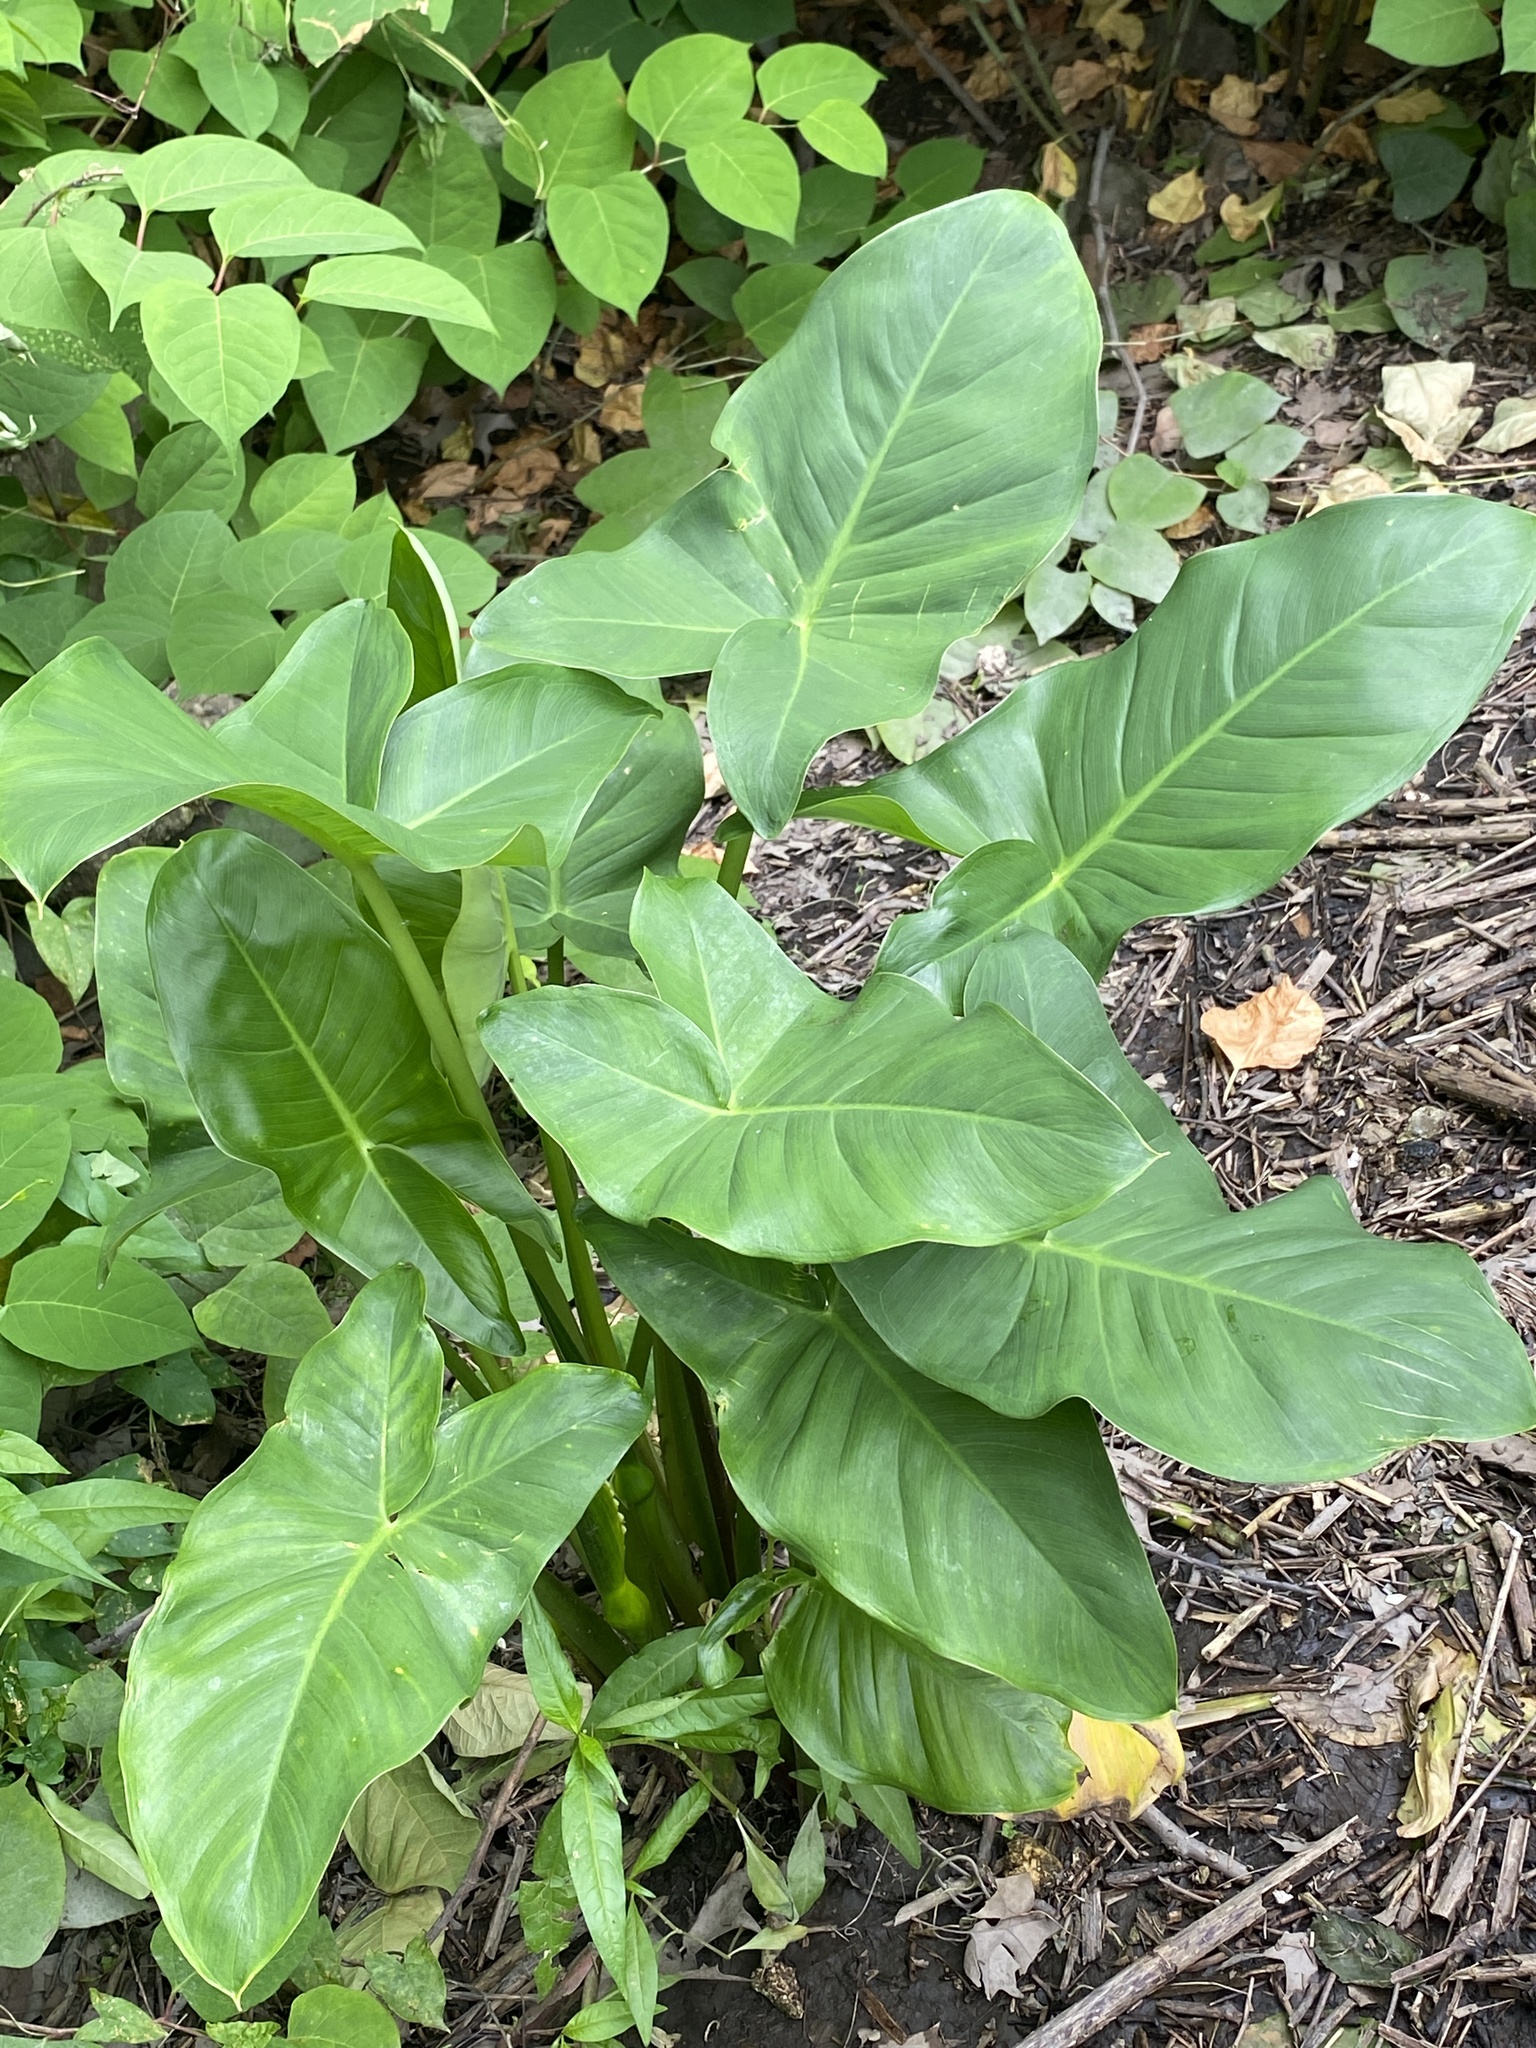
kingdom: Plantae
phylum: Tracheophyta
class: Liliopsida
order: Alismatales
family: Araceae
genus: Peltandra
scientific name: Peltandra virginica
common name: Arrow arum
